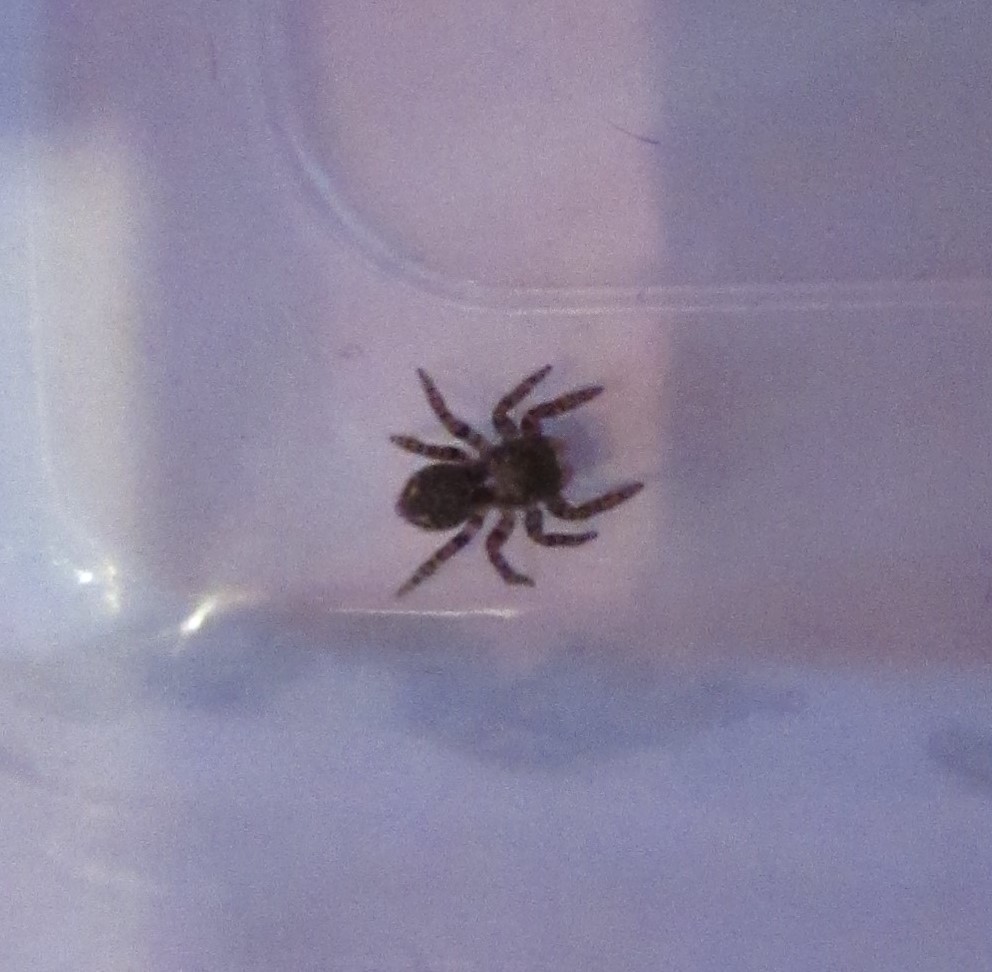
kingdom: Animalia
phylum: Arthropoda
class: Arachnida
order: Araneae
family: Salticidae
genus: Pseudeuophrys
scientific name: Pseudeuophrys erratica
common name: Jumping spider
